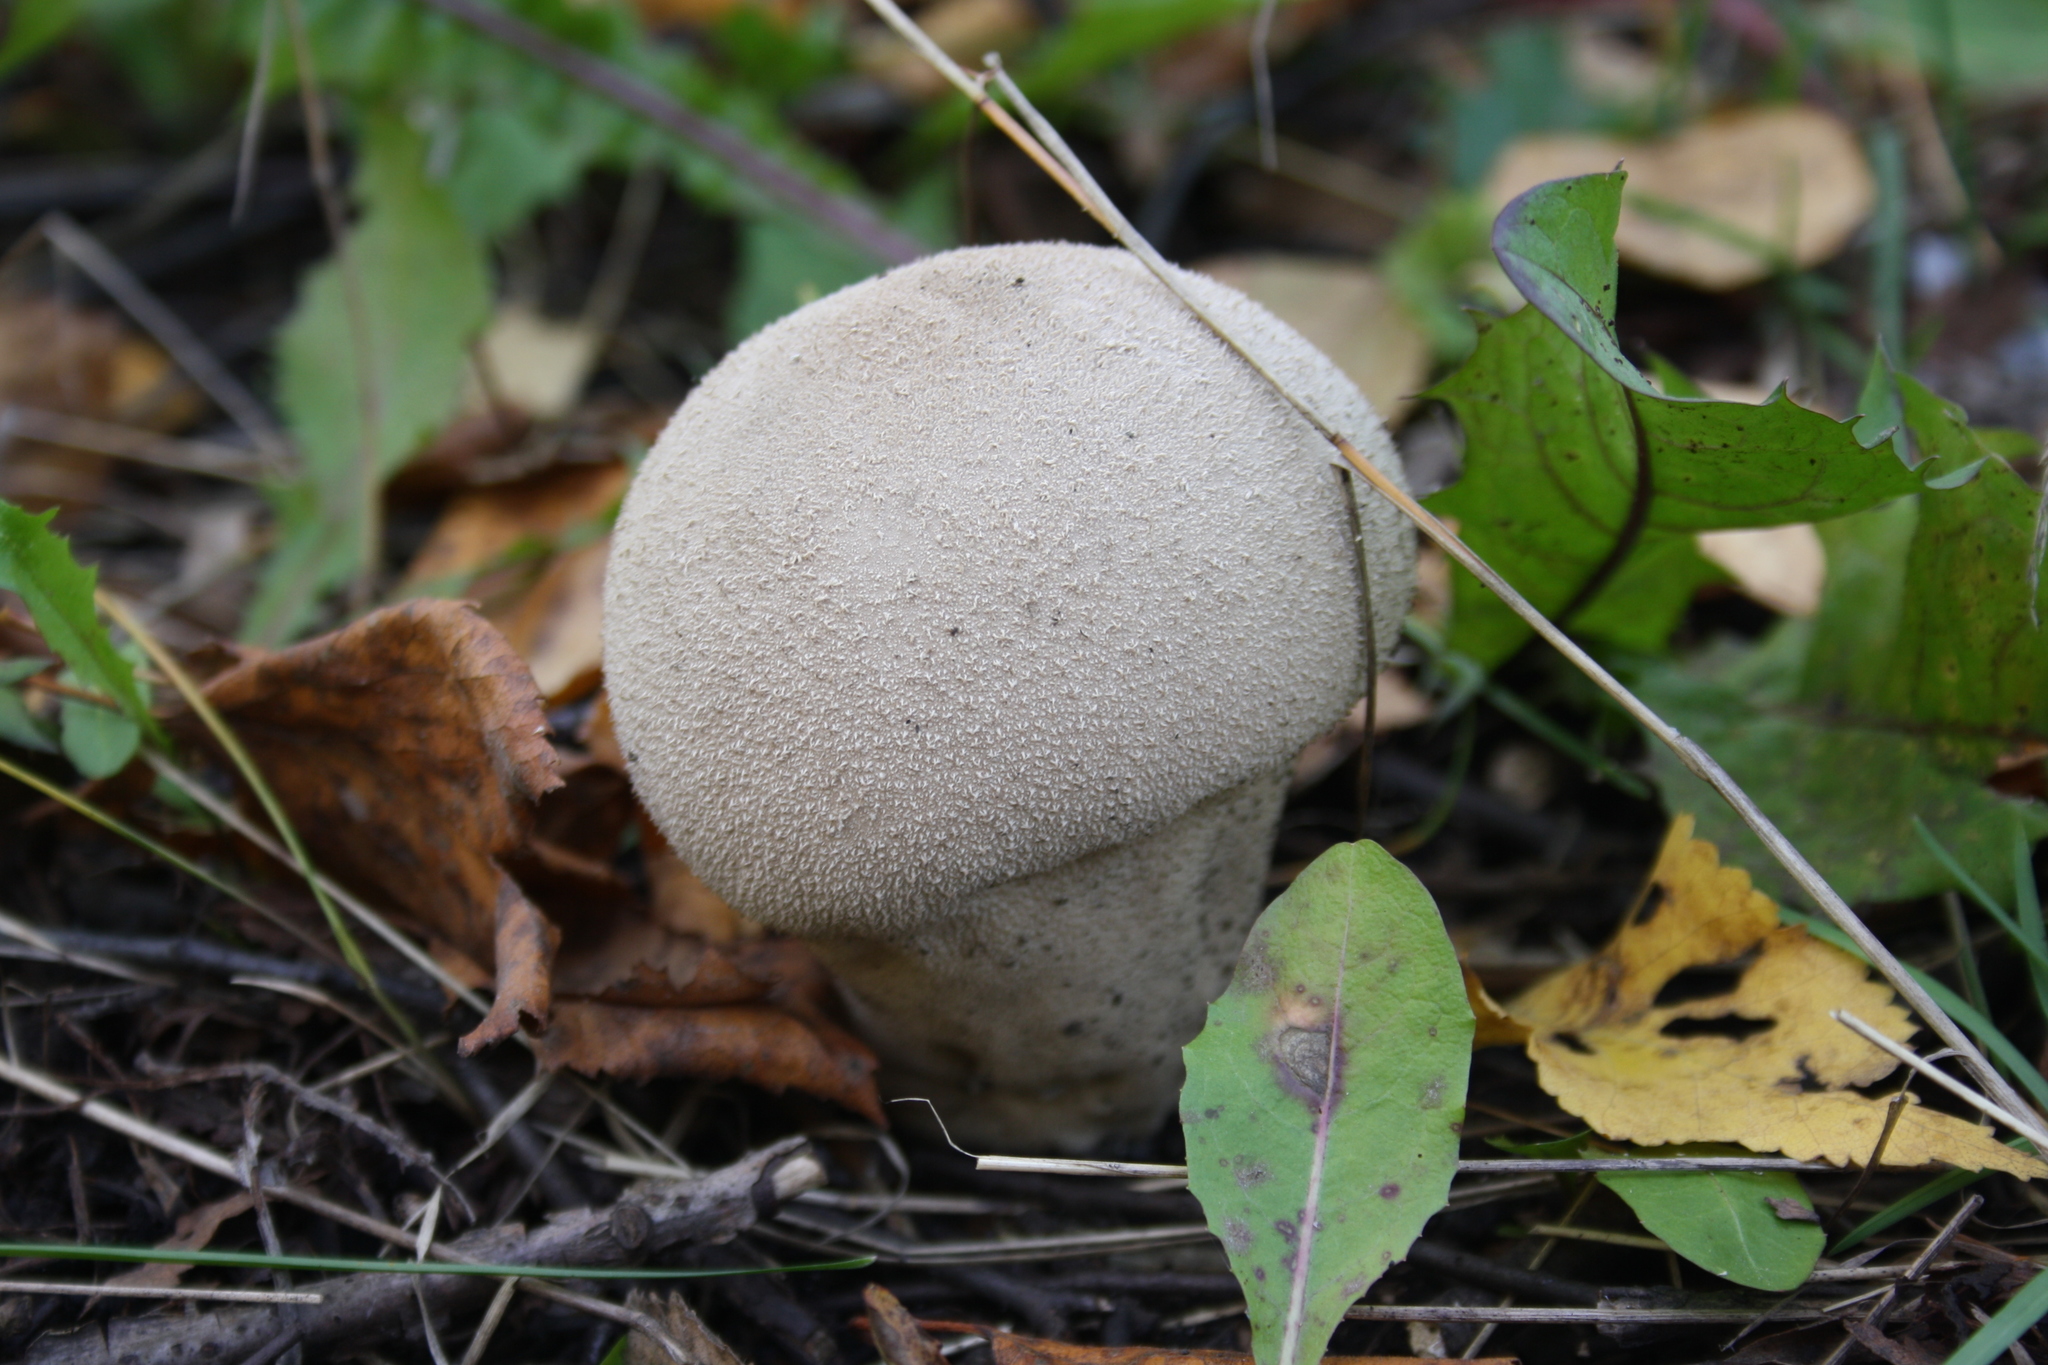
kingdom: Fungi
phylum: Basidiomycota
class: Agaricomycetes
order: Agaricales
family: Lycoperdaceae
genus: Lycoperdon
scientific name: Lycoperdon excipuliforme
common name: Pestle puffball
